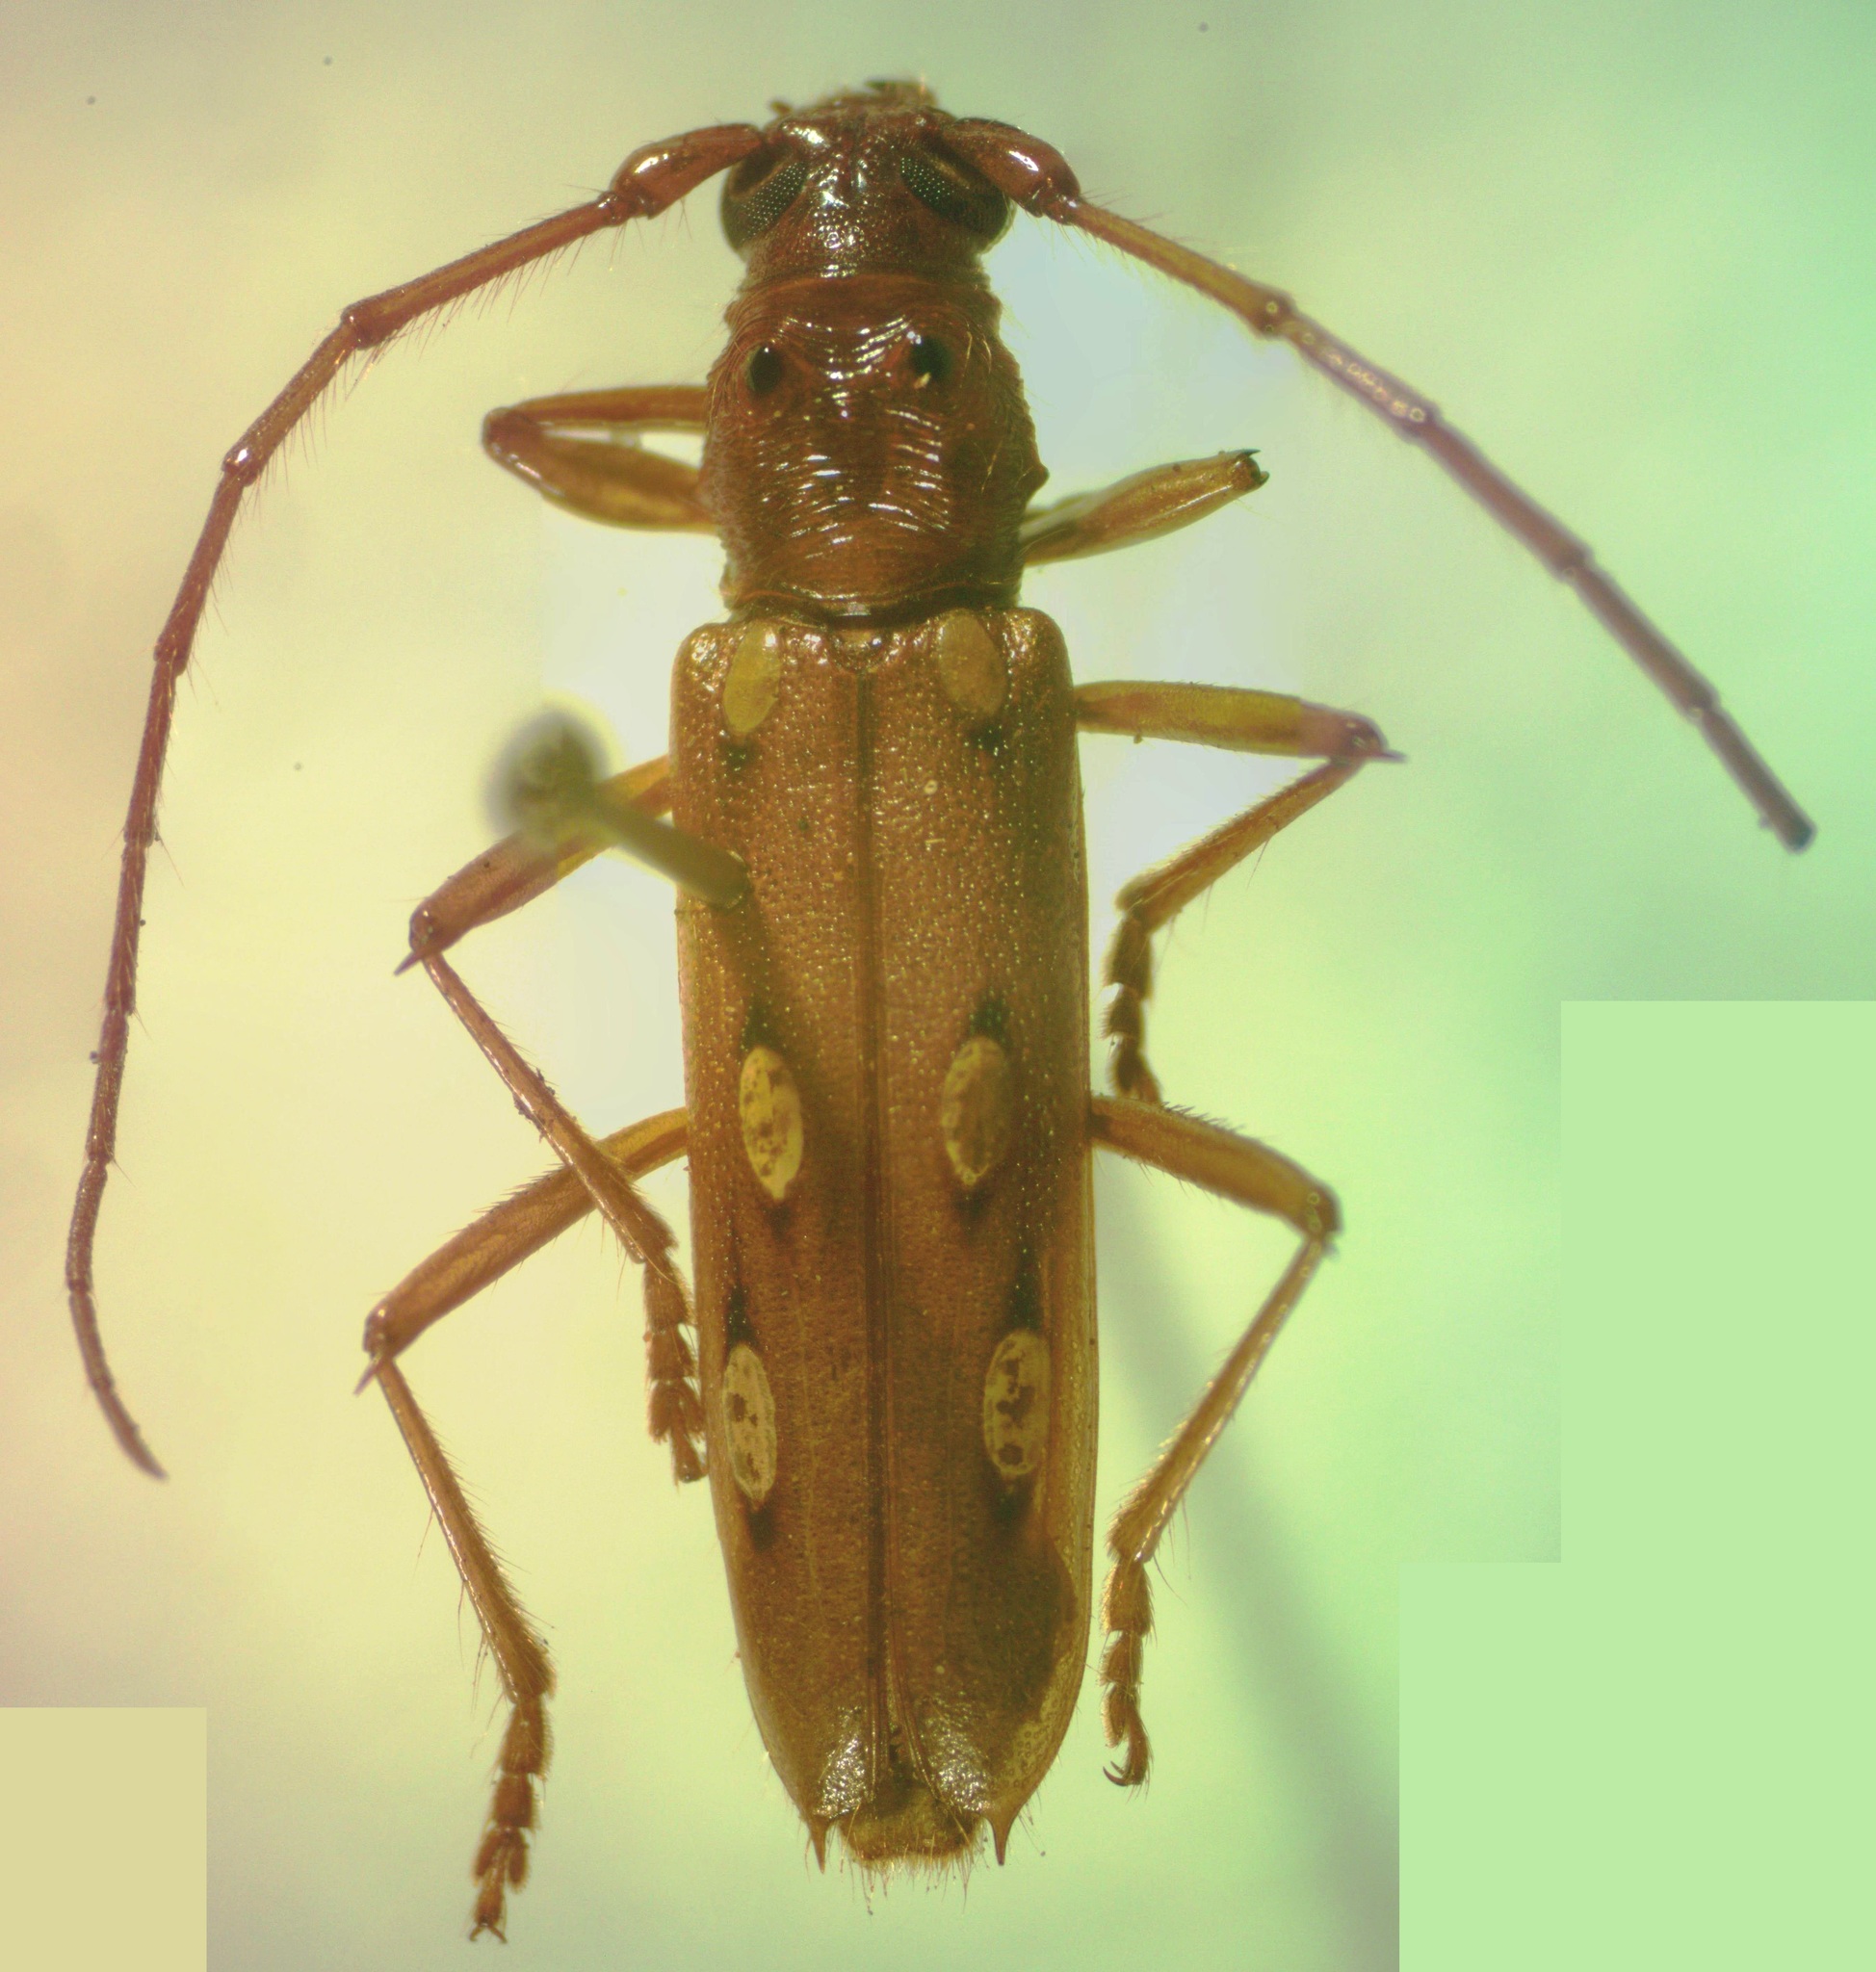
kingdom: Animalia
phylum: Arthropoda
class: Insecta
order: Coleoptera
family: Cerambycidae
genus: Eburodacrys
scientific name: Eburodacrys triocellata
